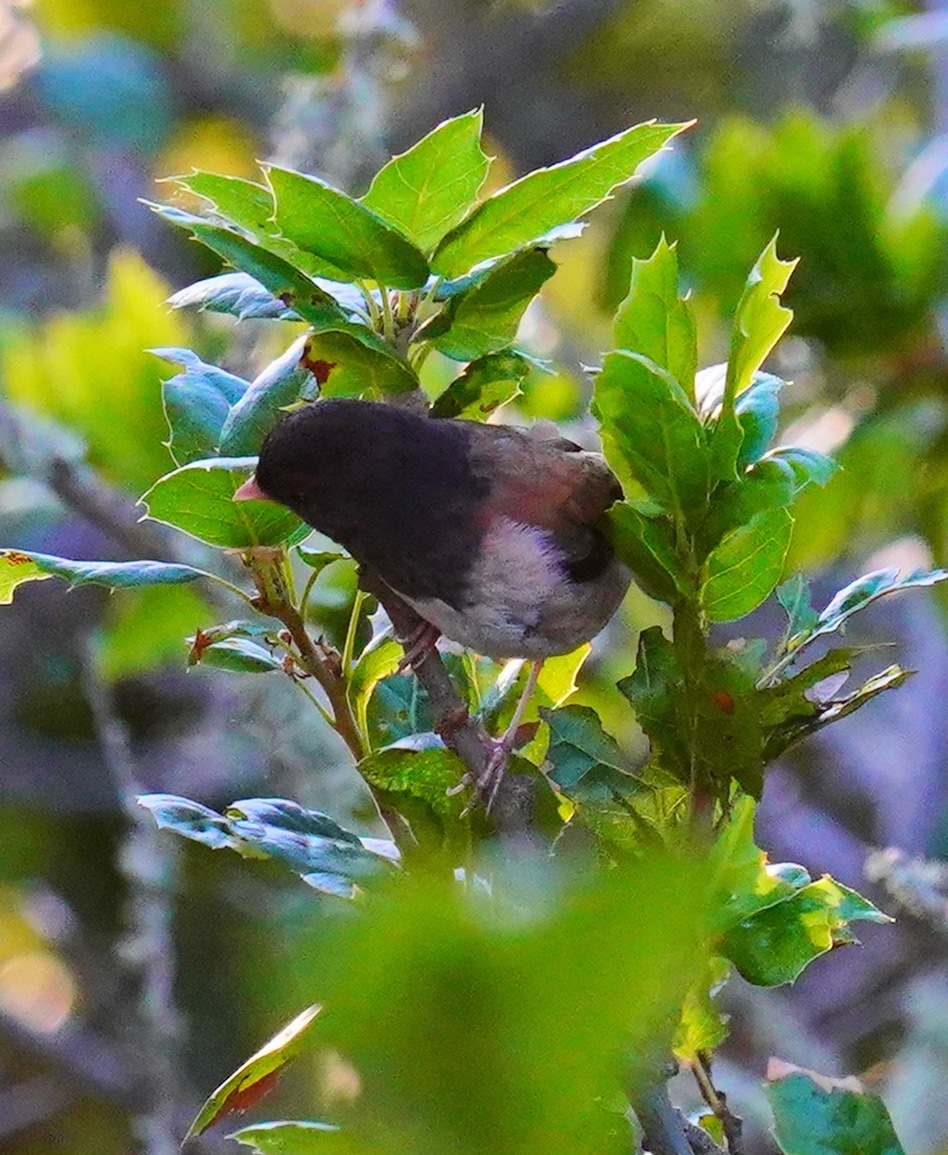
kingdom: Animalia
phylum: Chordata
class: Aves
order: Passeriformes
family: Passerellidae
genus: Junco
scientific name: Junco hyemalis
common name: Dark-eyed junco
